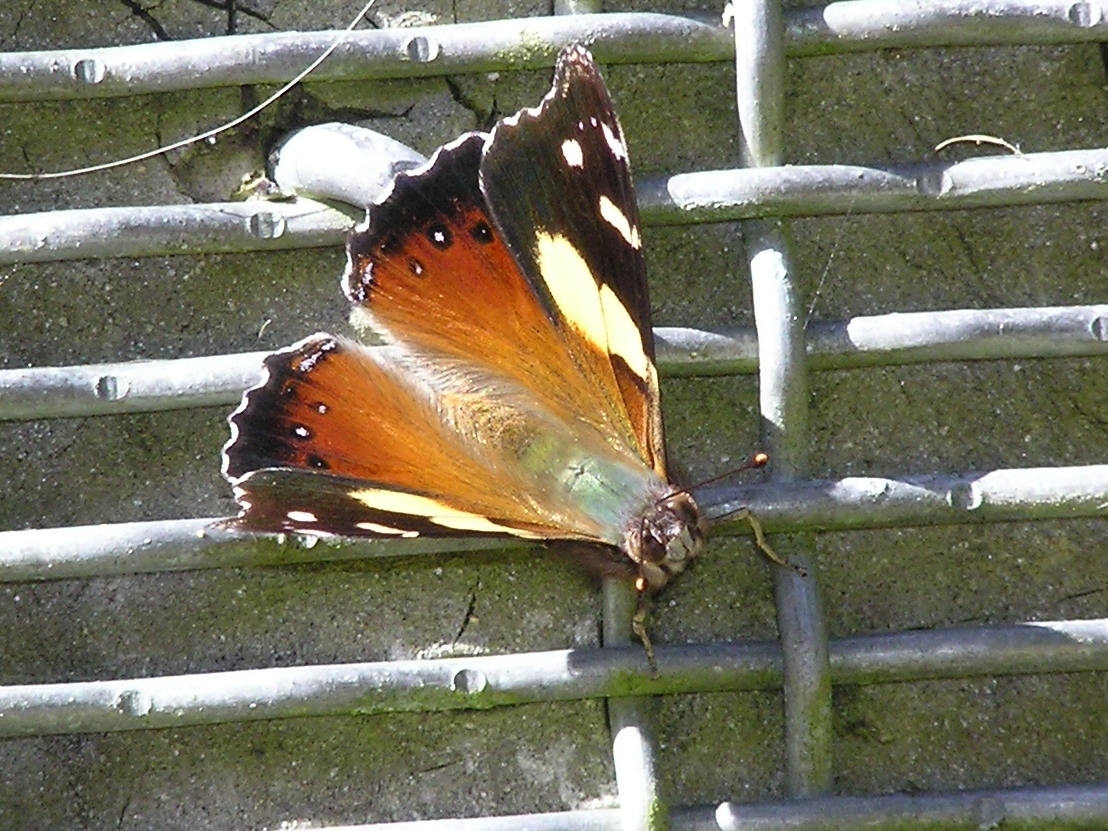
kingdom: Animalia
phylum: Arthropoda
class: Insecta
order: Lepidoptera
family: Nymphalidae
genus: Vanessa
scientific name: Vanessa itea
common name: Yellow admiral
